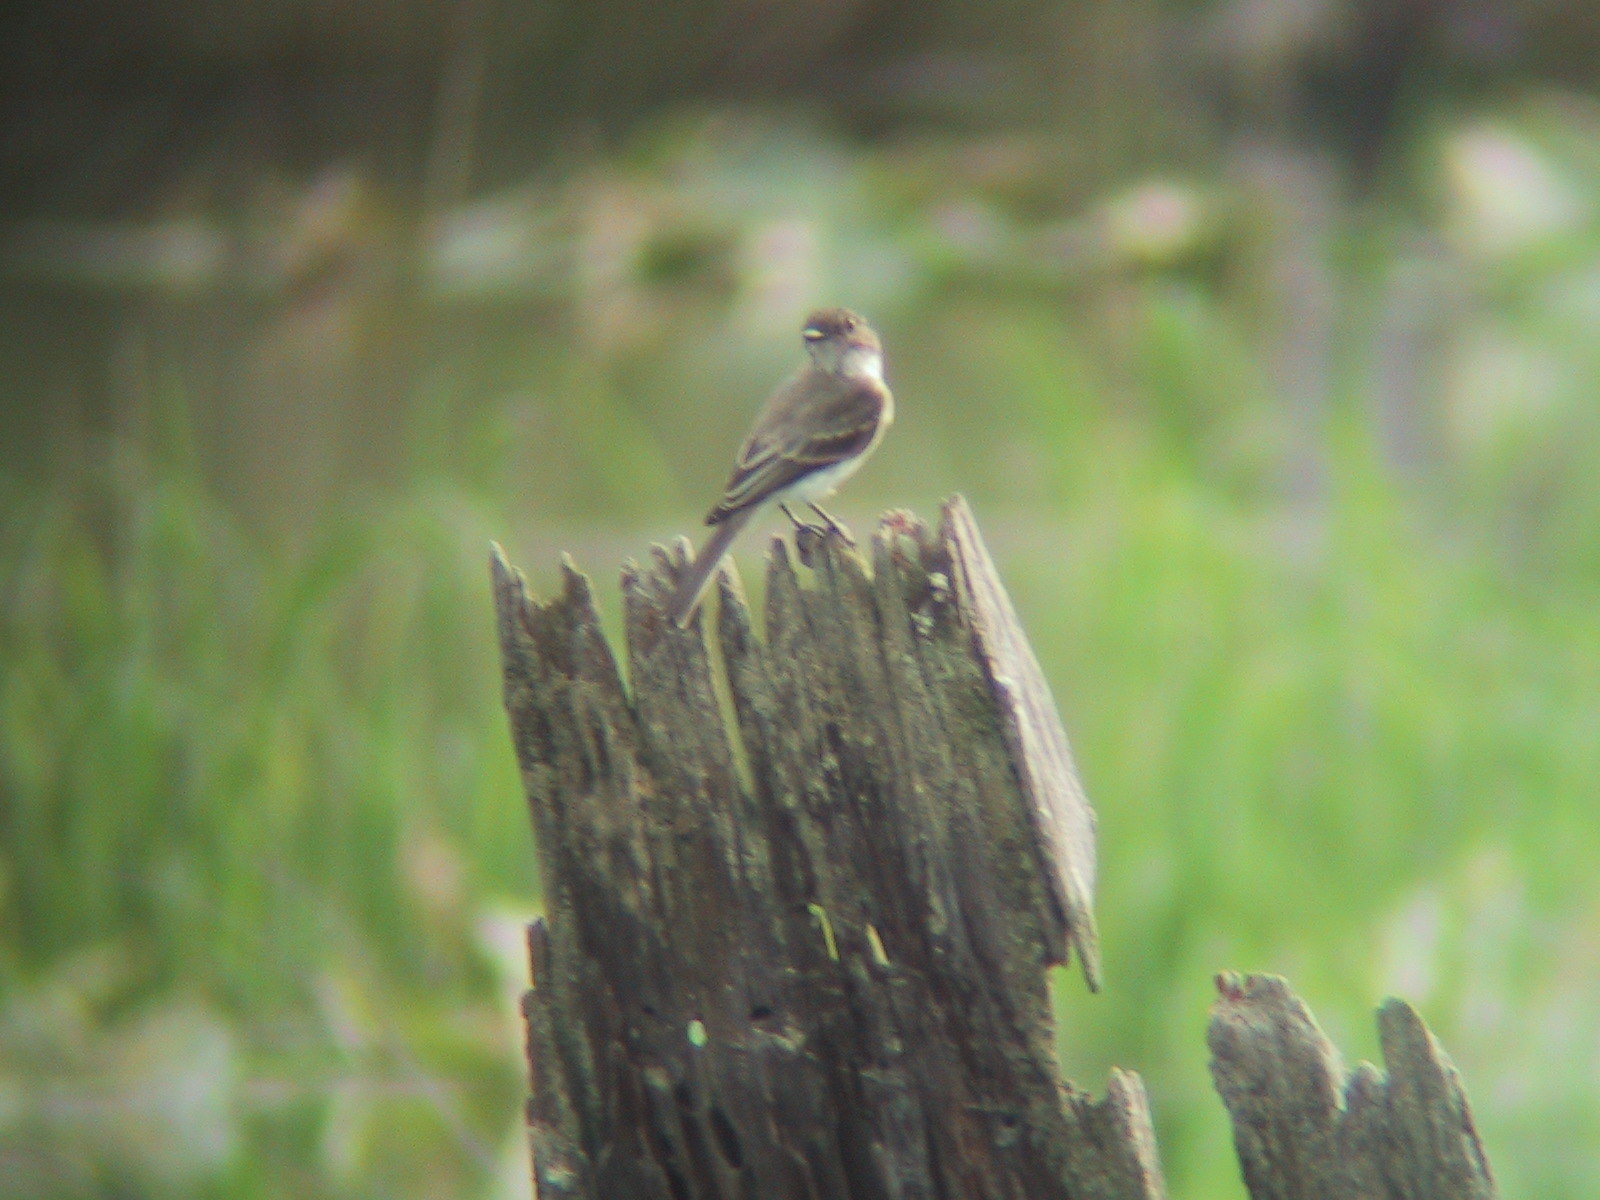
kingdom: Animalia
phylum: Chordata
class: Aves
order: Passeriformes
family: Tyrannidae
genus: Sayornis
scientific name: Sayornis phoebe
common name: Eastern phoebe
